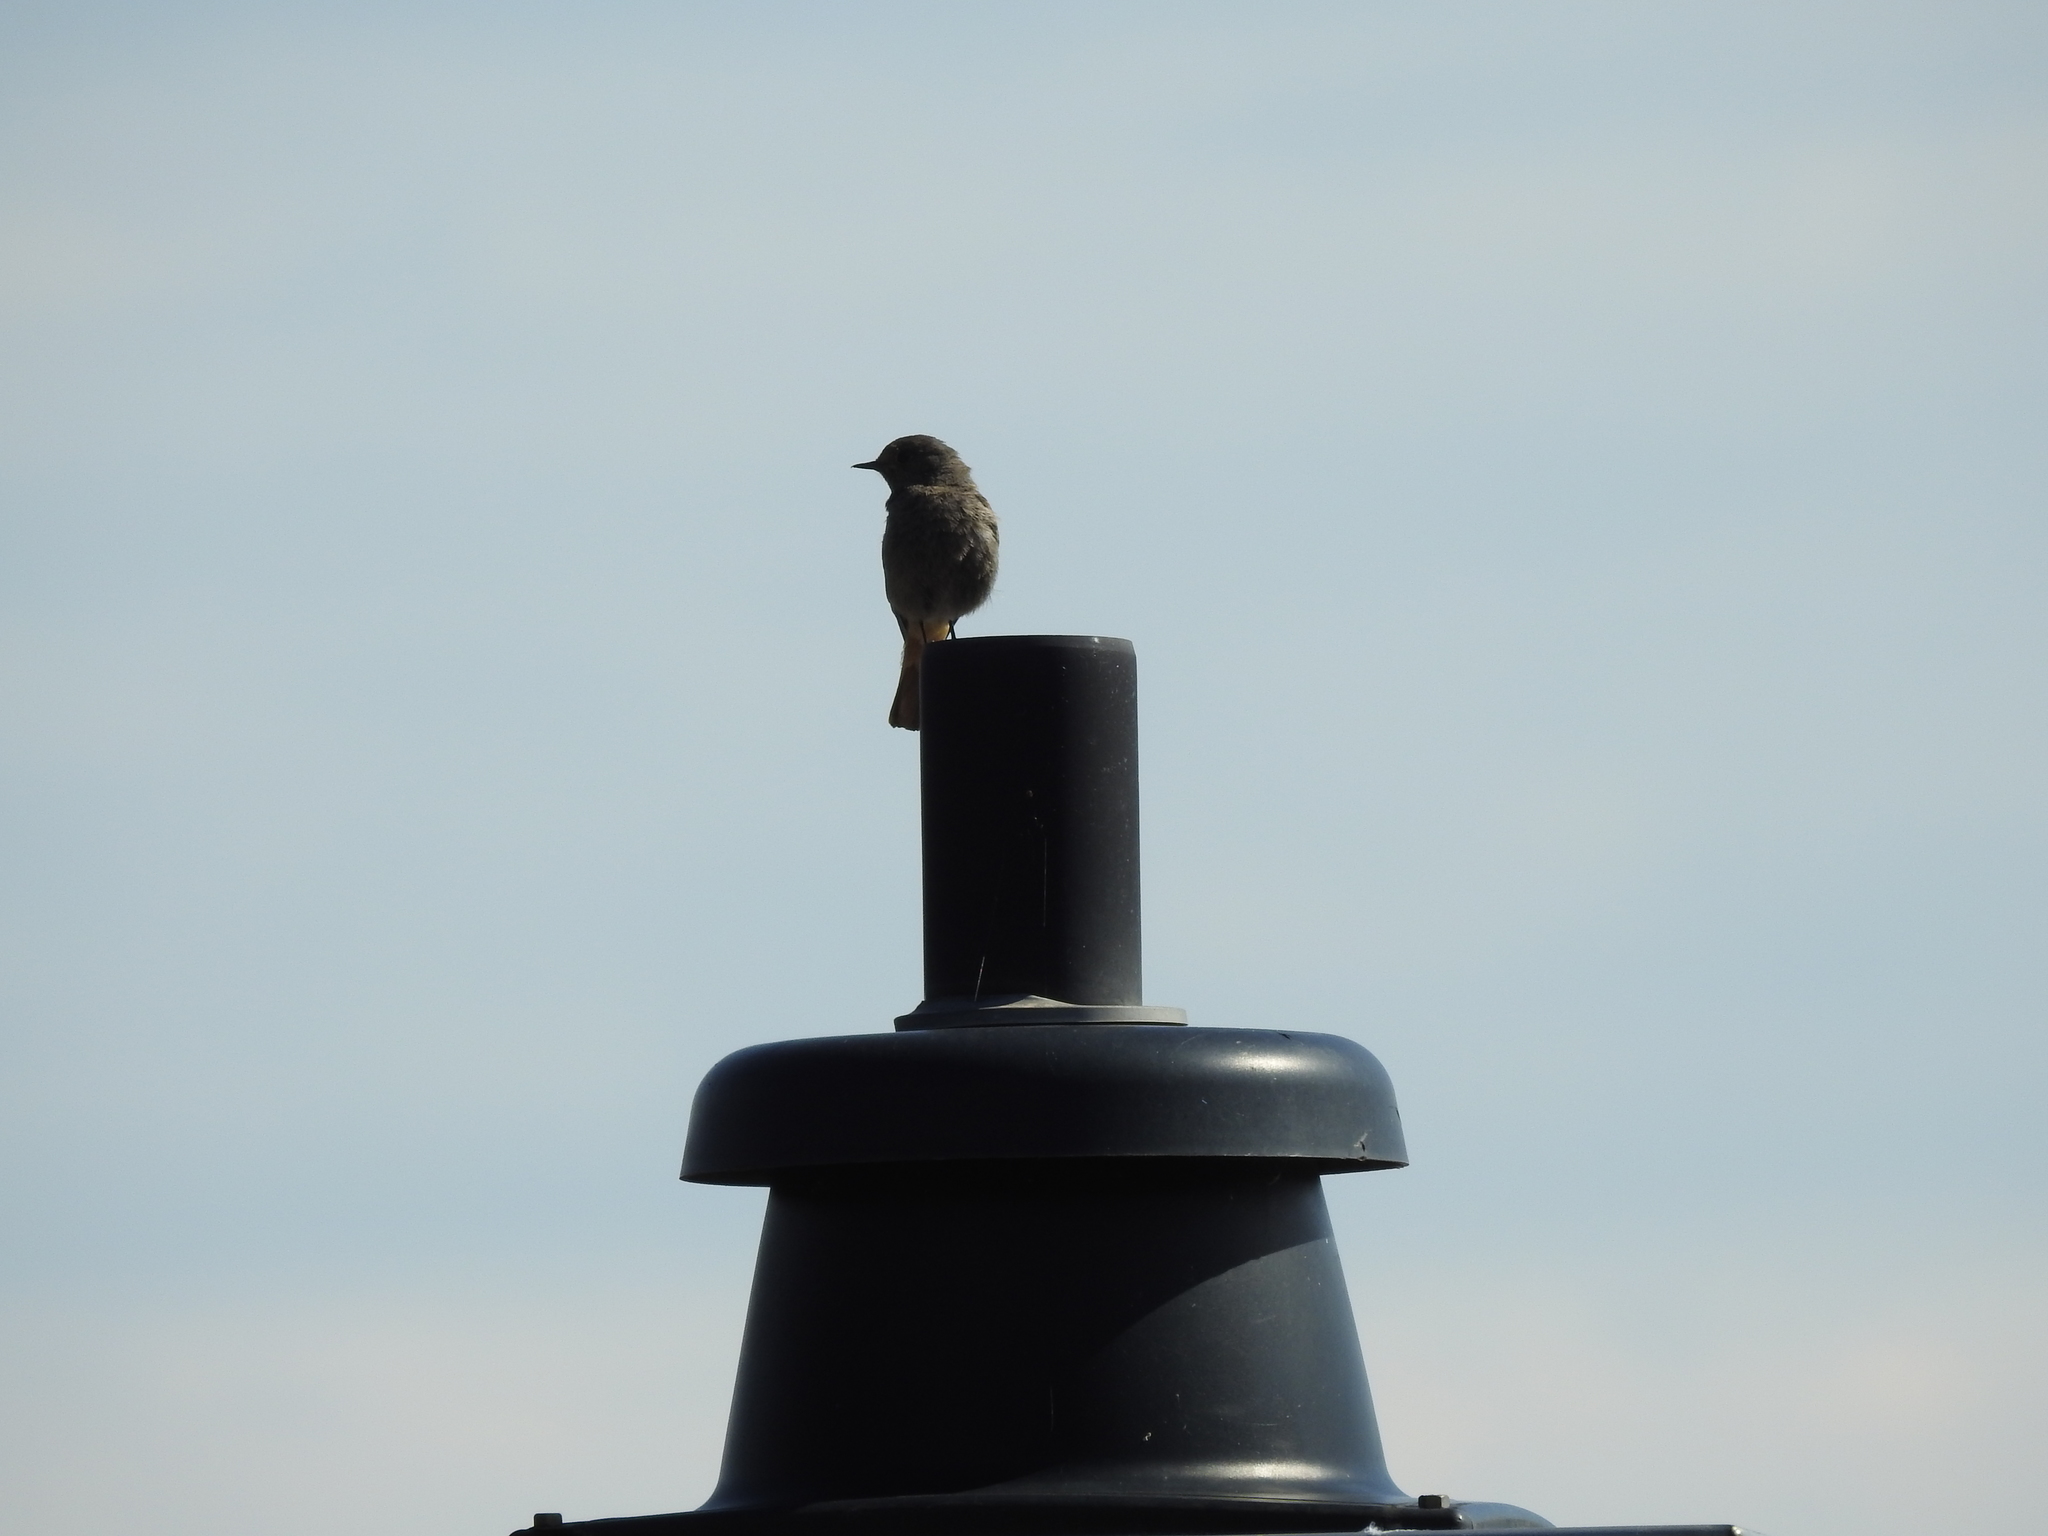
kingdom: Animalia
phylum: Chordata
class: Aves
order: Passeriformes
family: Muscicapidae
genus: Phoenicurus
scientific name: Phoenicurus ochruros
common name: Black redstart
